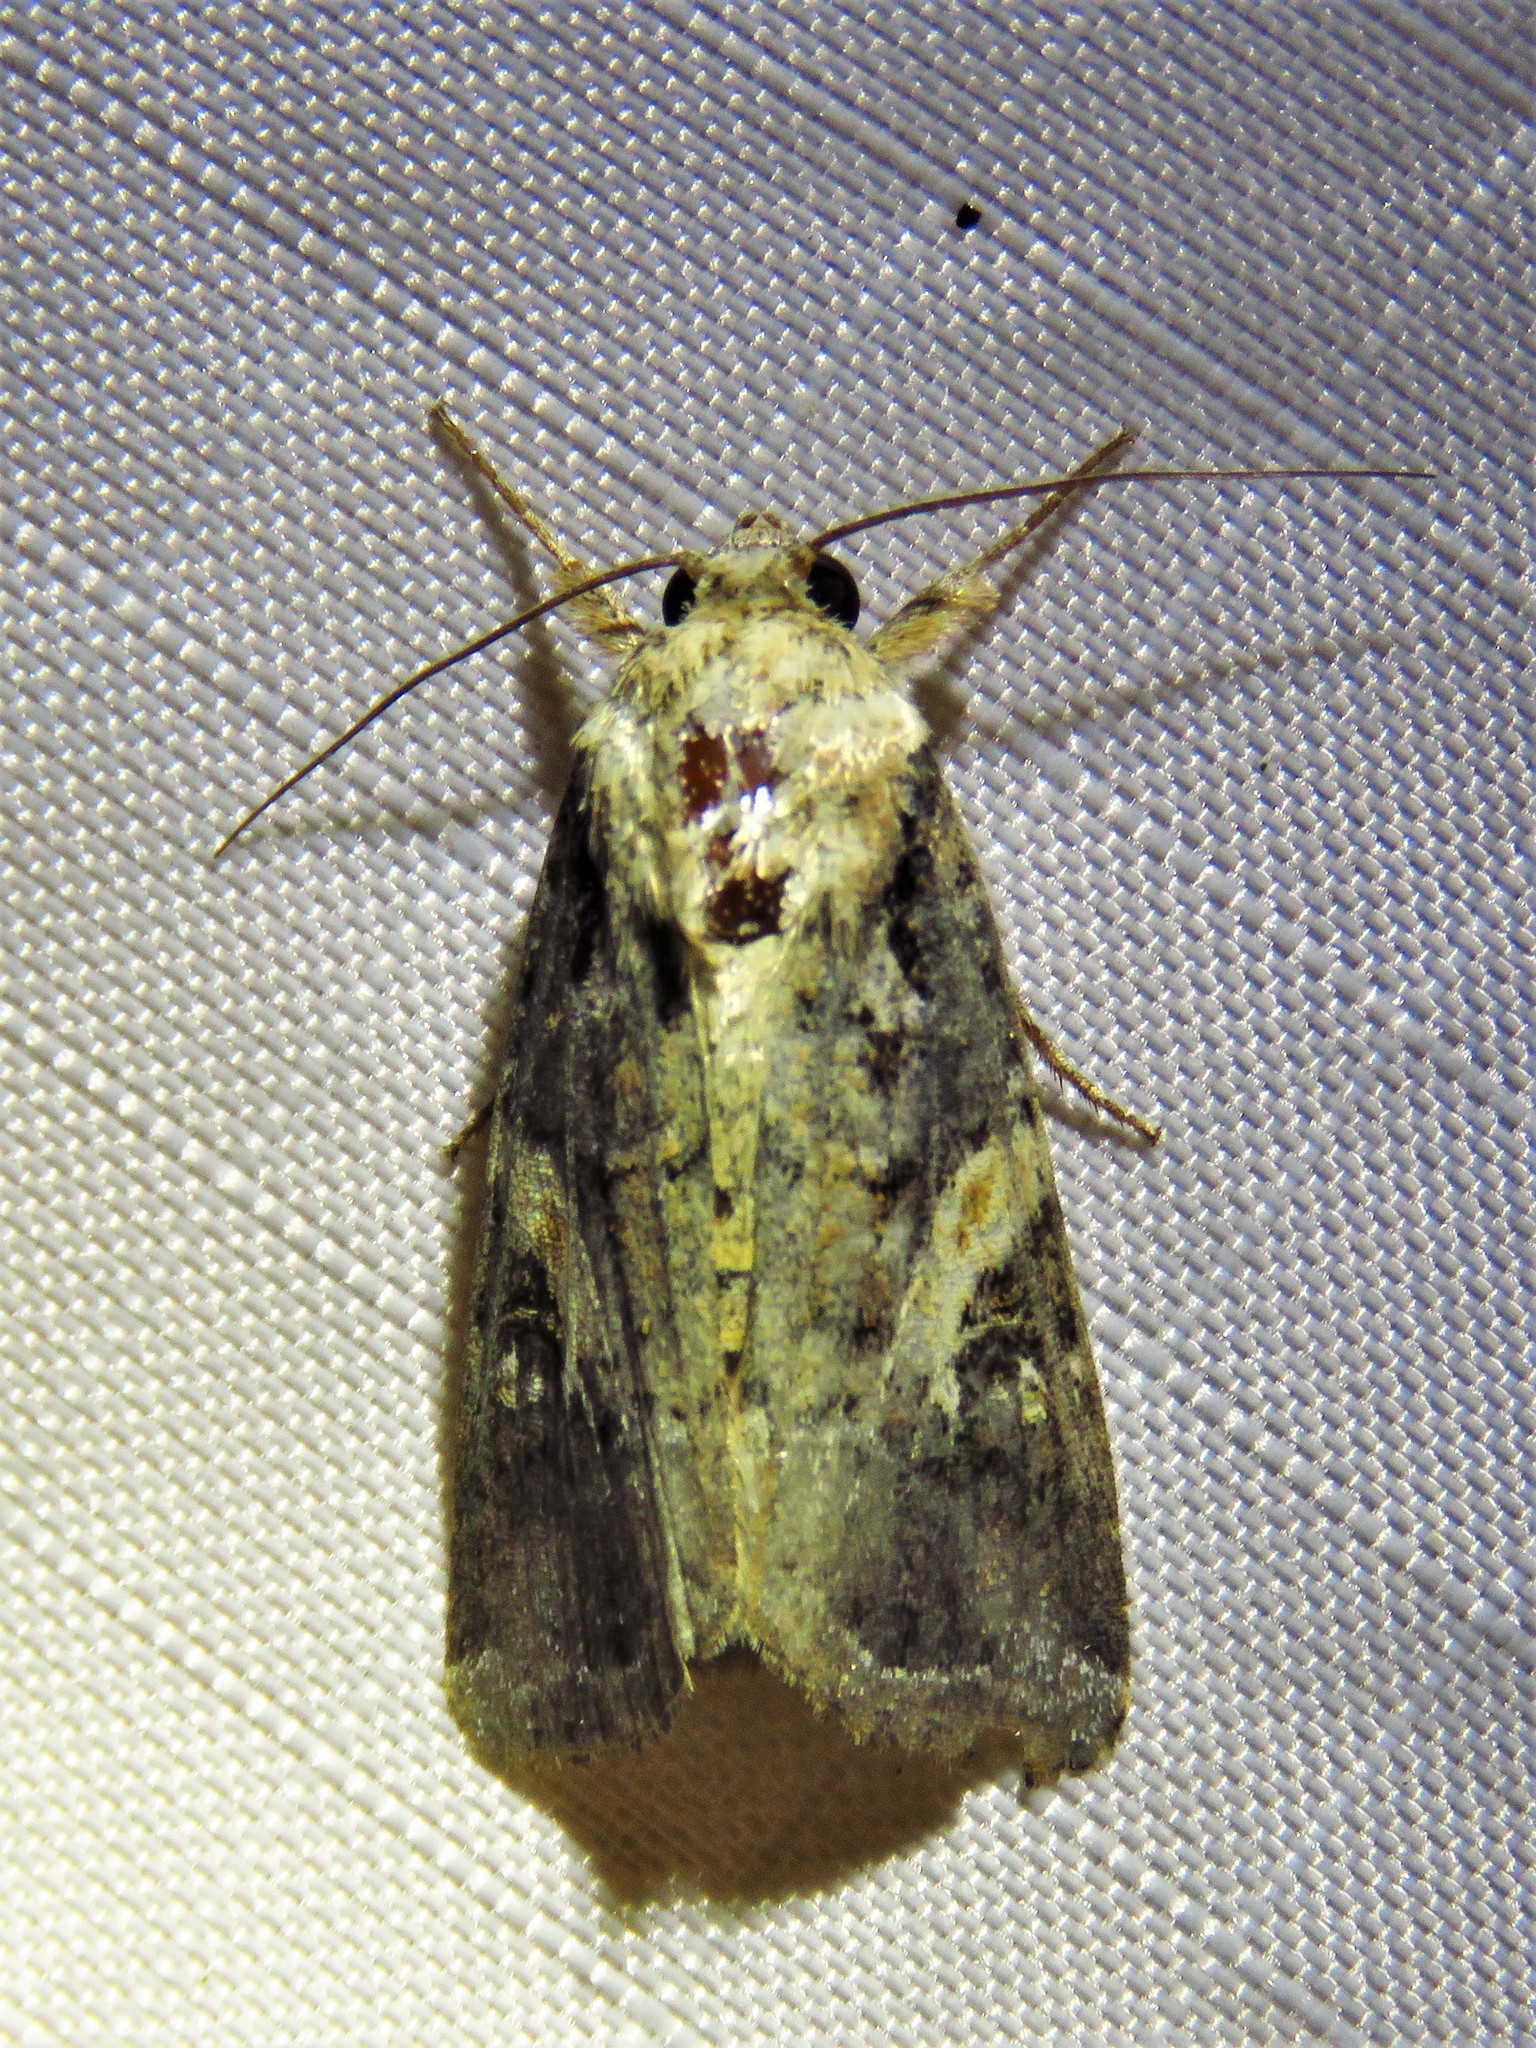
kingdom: Animalia
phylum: Arthropoda
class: Insecta
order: Lepidoptera
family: Noctuidae
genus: Spodoptera
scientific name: Spodoptera ornithogalli
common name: Yellow-striped armyworm
